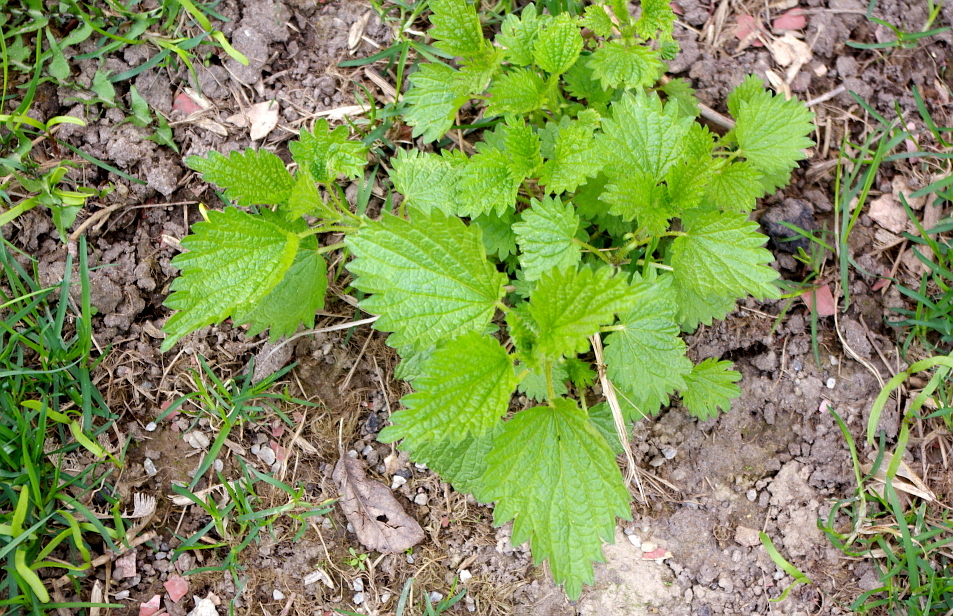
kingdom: Plantae
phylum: Tracheophyta
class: Magnoliopsida
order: Rosales
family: Urticaceae
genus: Urtica
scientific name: Urtica dioica
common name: Common nettle
